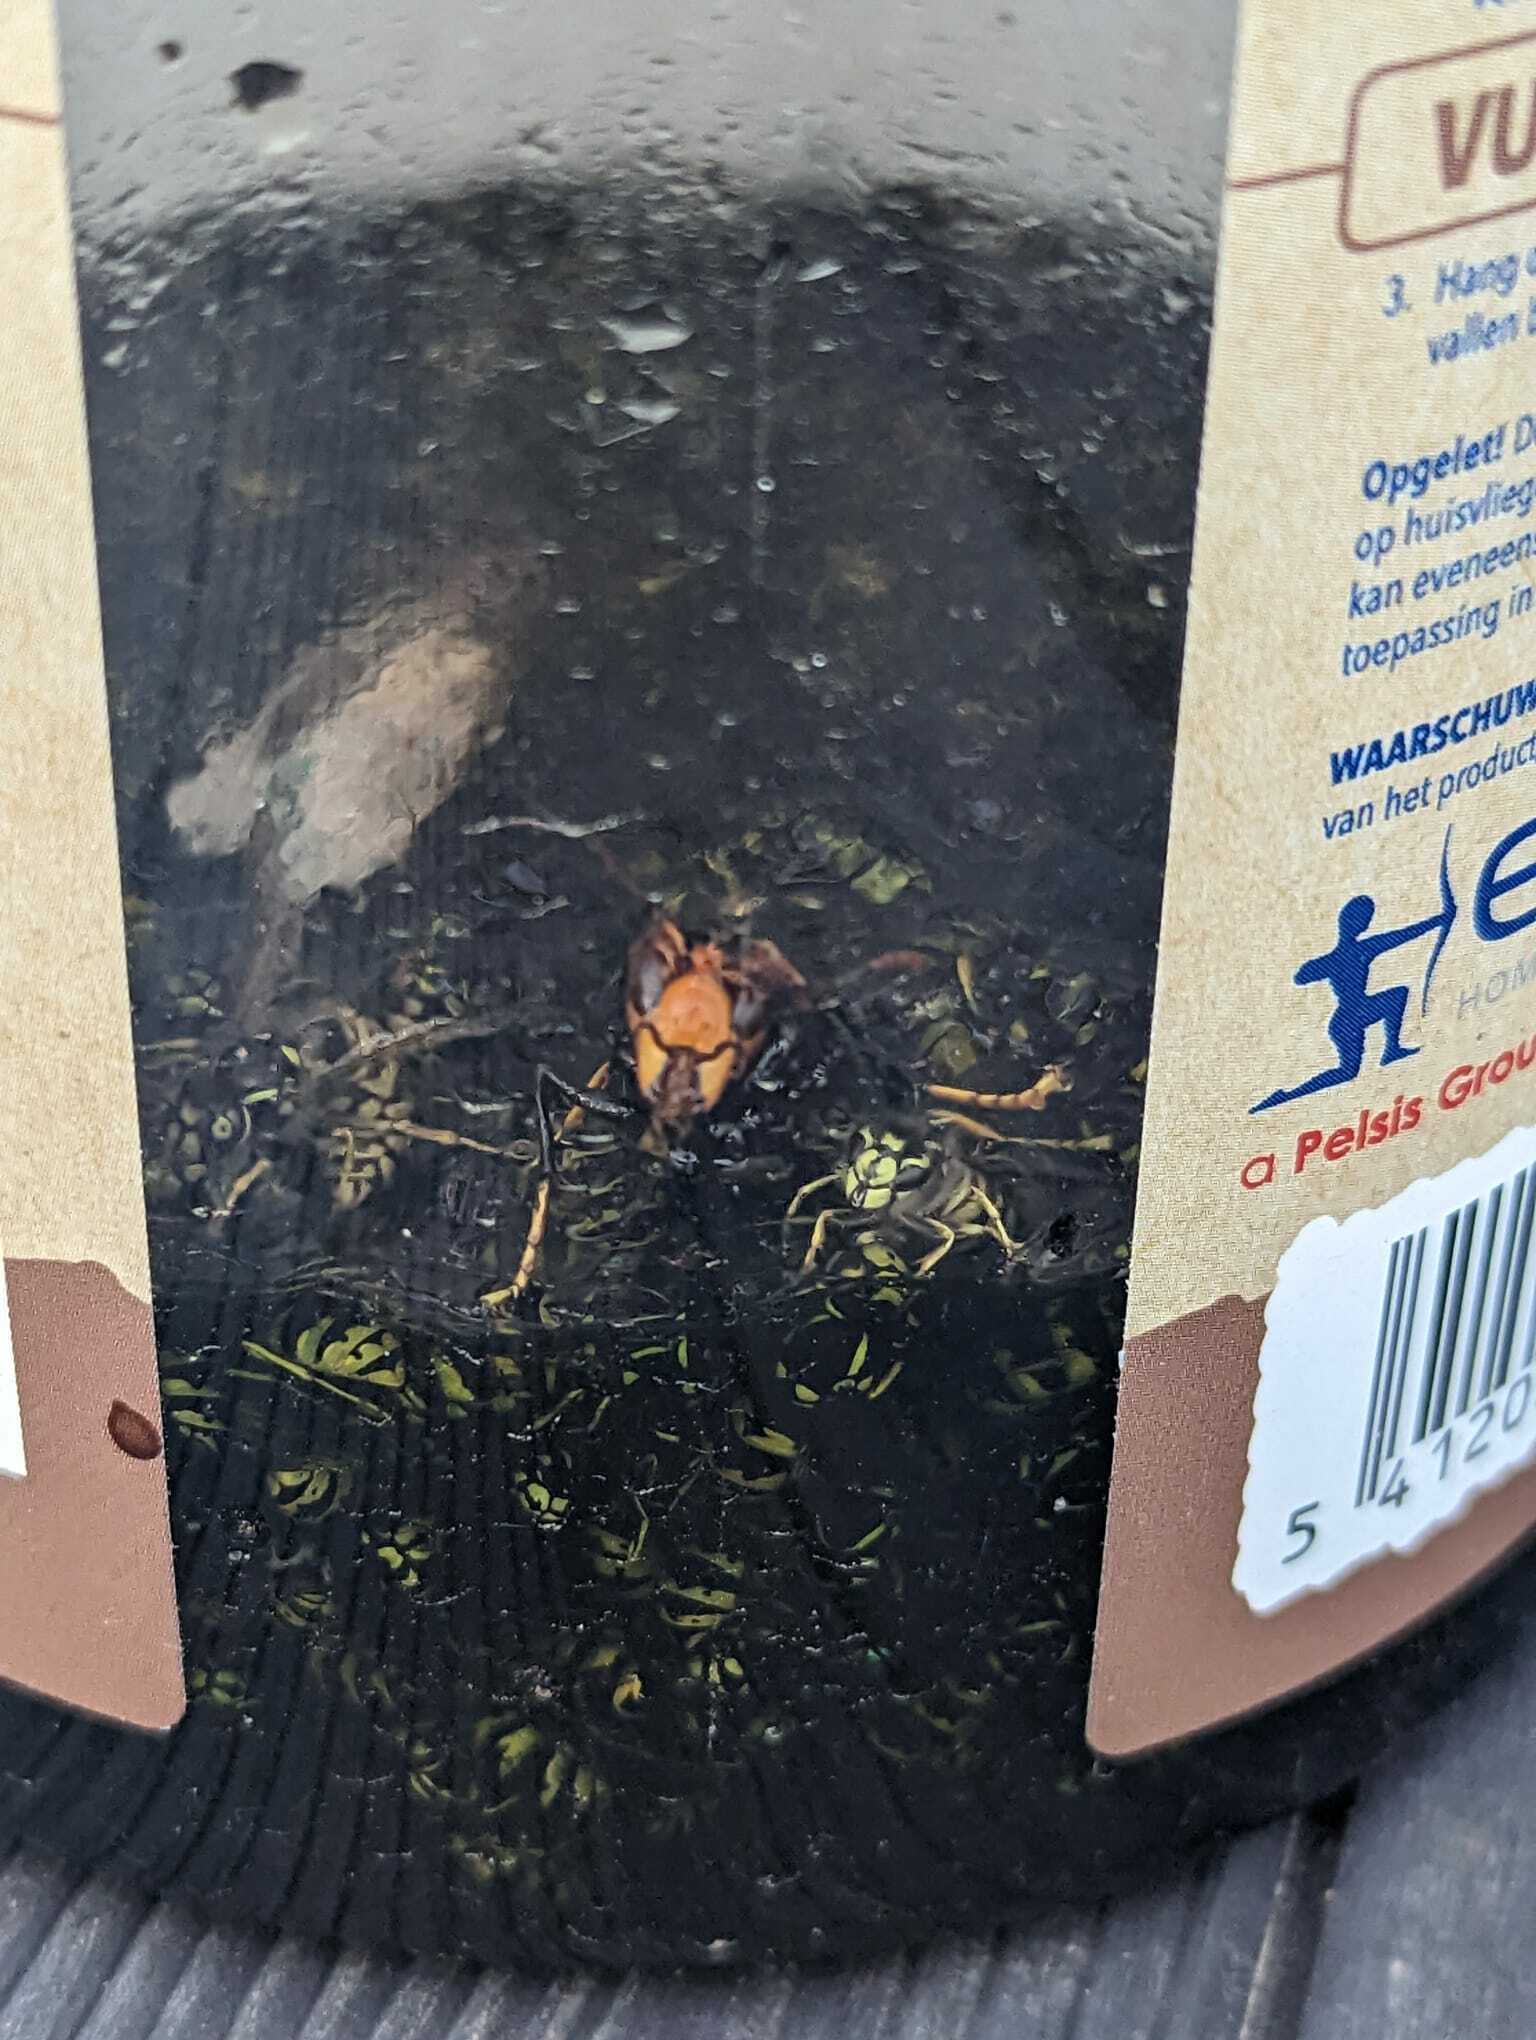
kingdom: Animalia
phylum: Arthropoda
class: Insecta
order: Hymenoptera
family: Vespidae
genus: Vespa
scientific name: Vespa velutina
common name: Asian hornet
